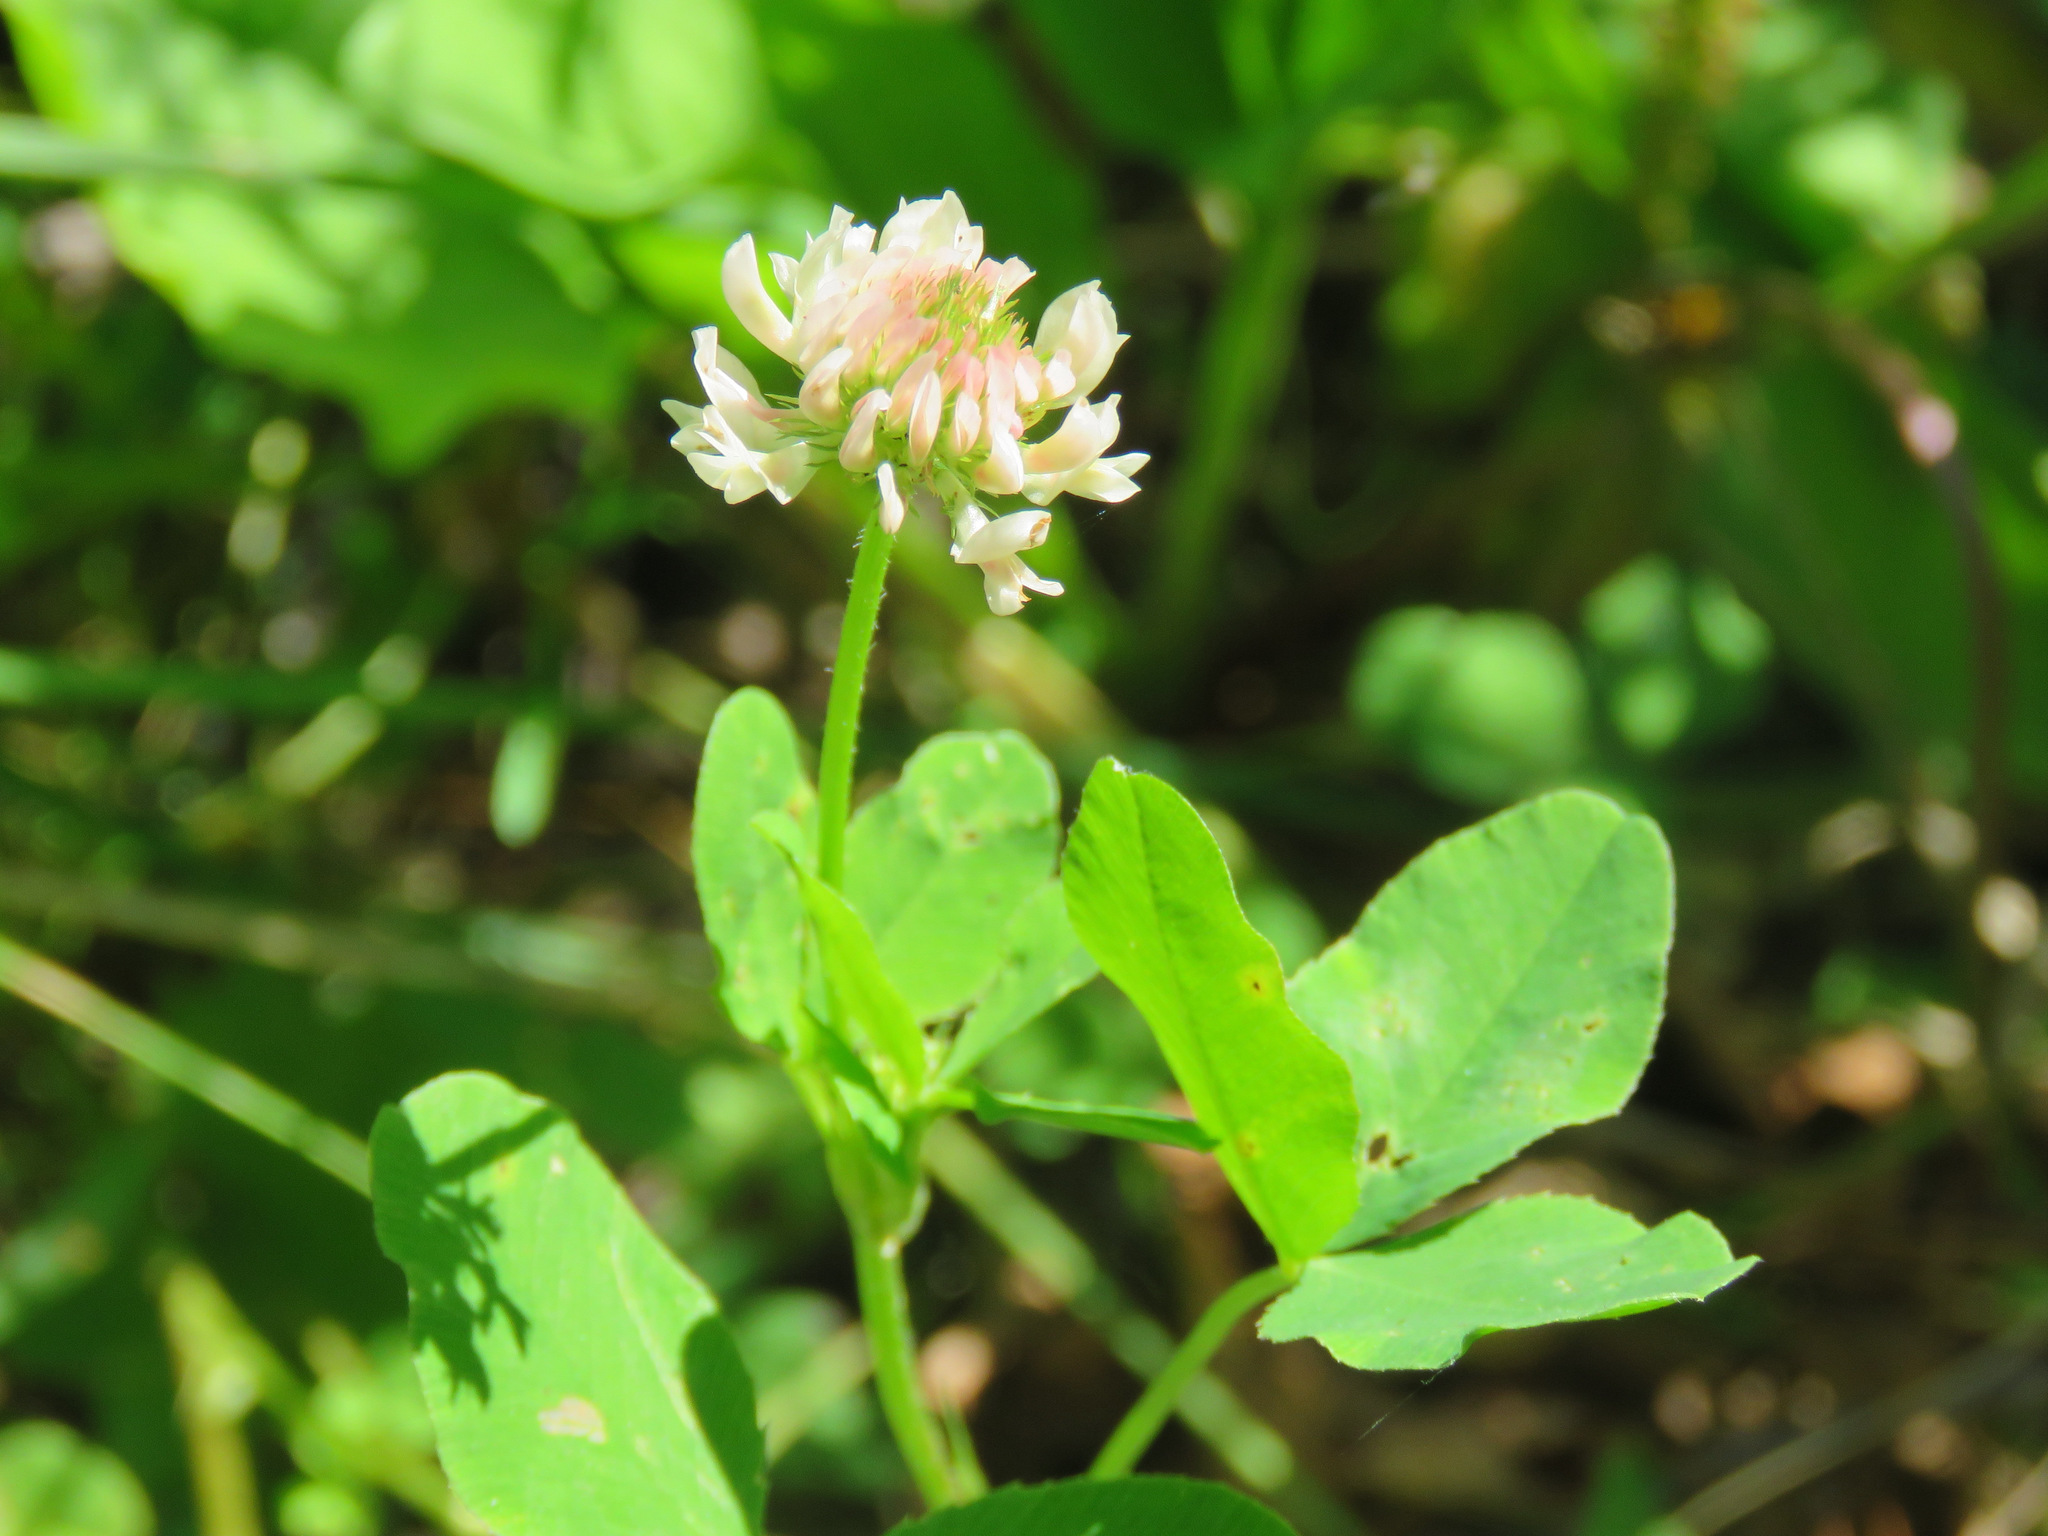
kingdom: Plantae
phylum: Tracheophyta
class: Magnoliopsida
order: Fabales
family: Fabaceae
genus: Trifolium
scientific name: Trifolium hybridum
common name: Alsike clover
